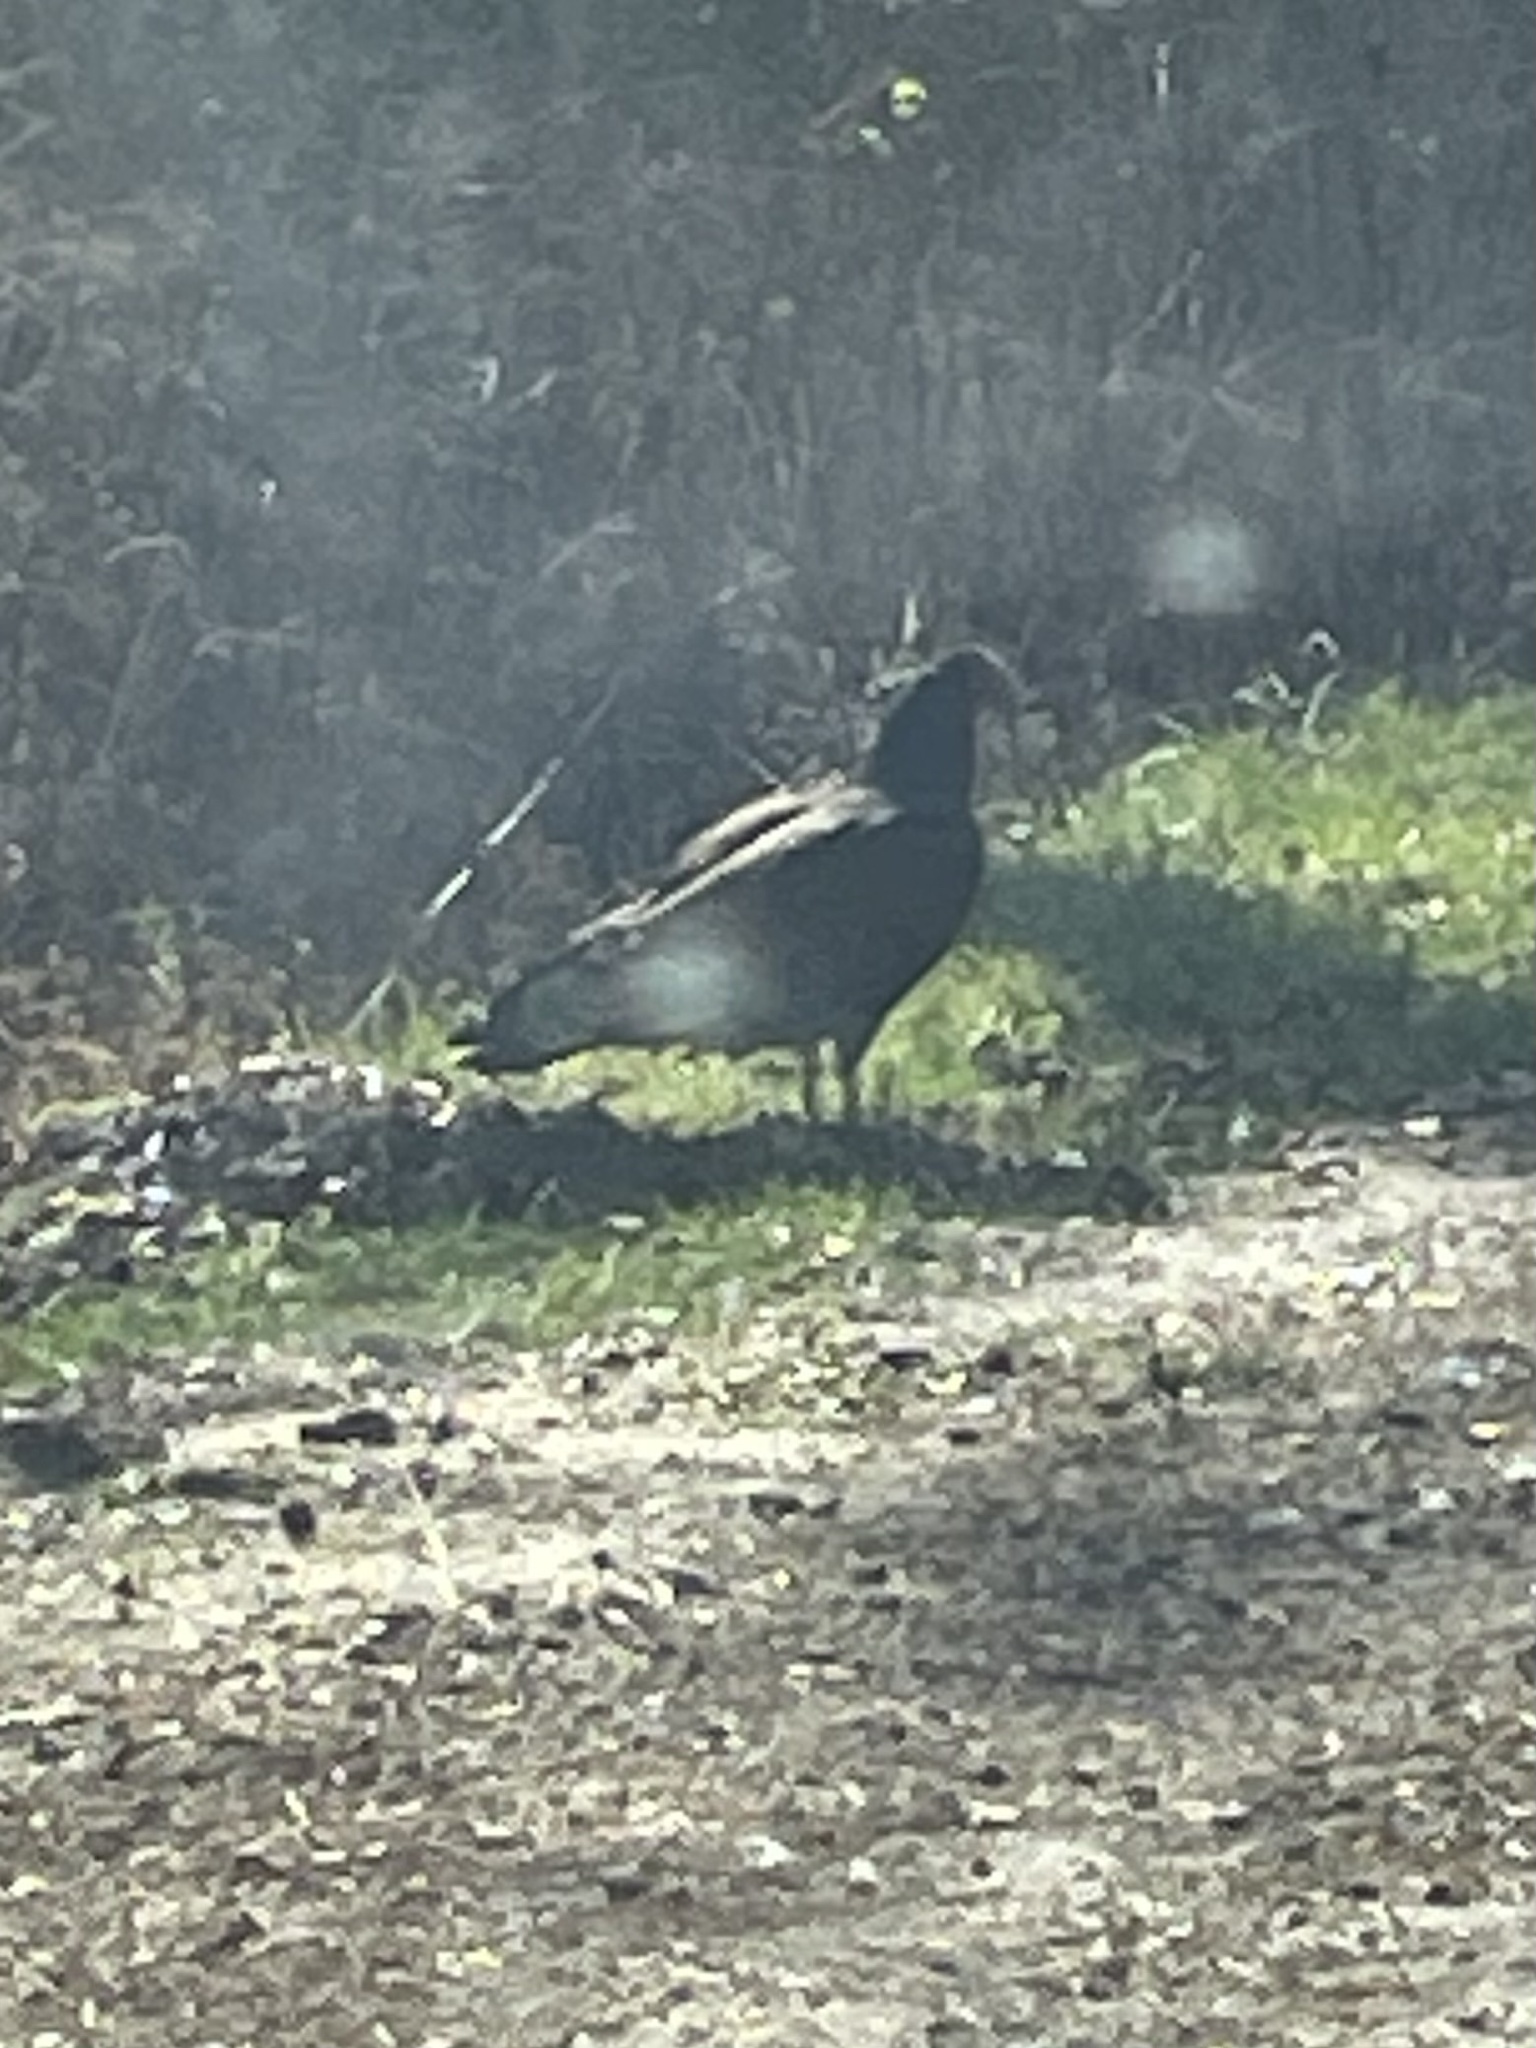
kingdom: Animalia
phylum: Chordata
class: Aves
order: Accipitriformes
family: Cathartidae
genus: Coragyps
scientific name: Coragyps atratus
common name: Black vulture
